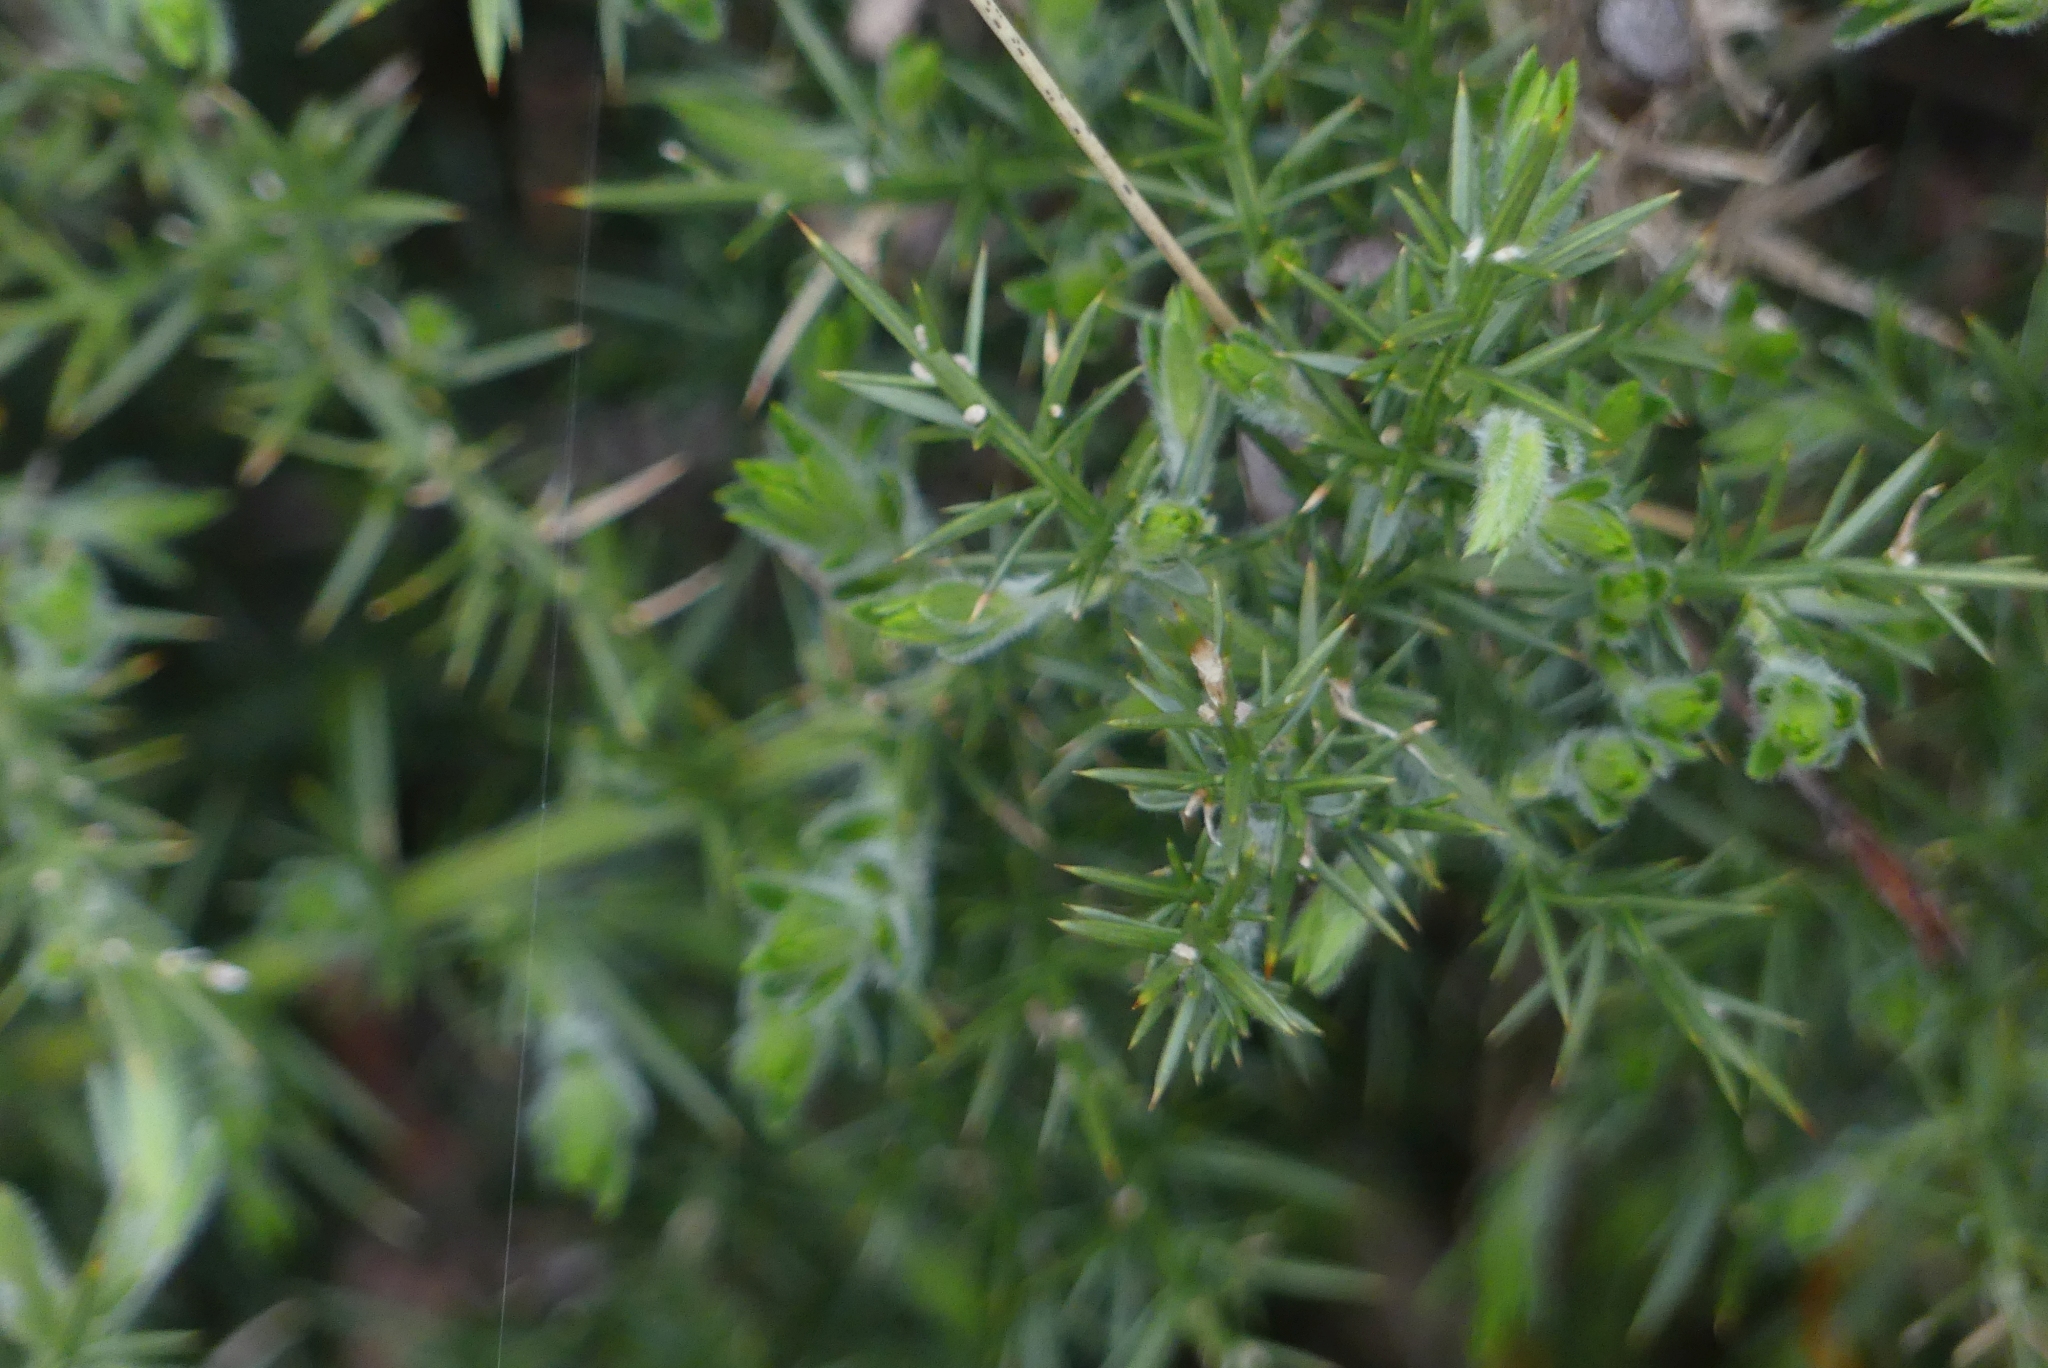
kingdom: Plantae
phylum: Tracheophyta
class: Magnoliopsida
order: Fabales
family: Fabaceae
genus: Ulex
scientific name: Ulex europaeus
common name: Common gorse
